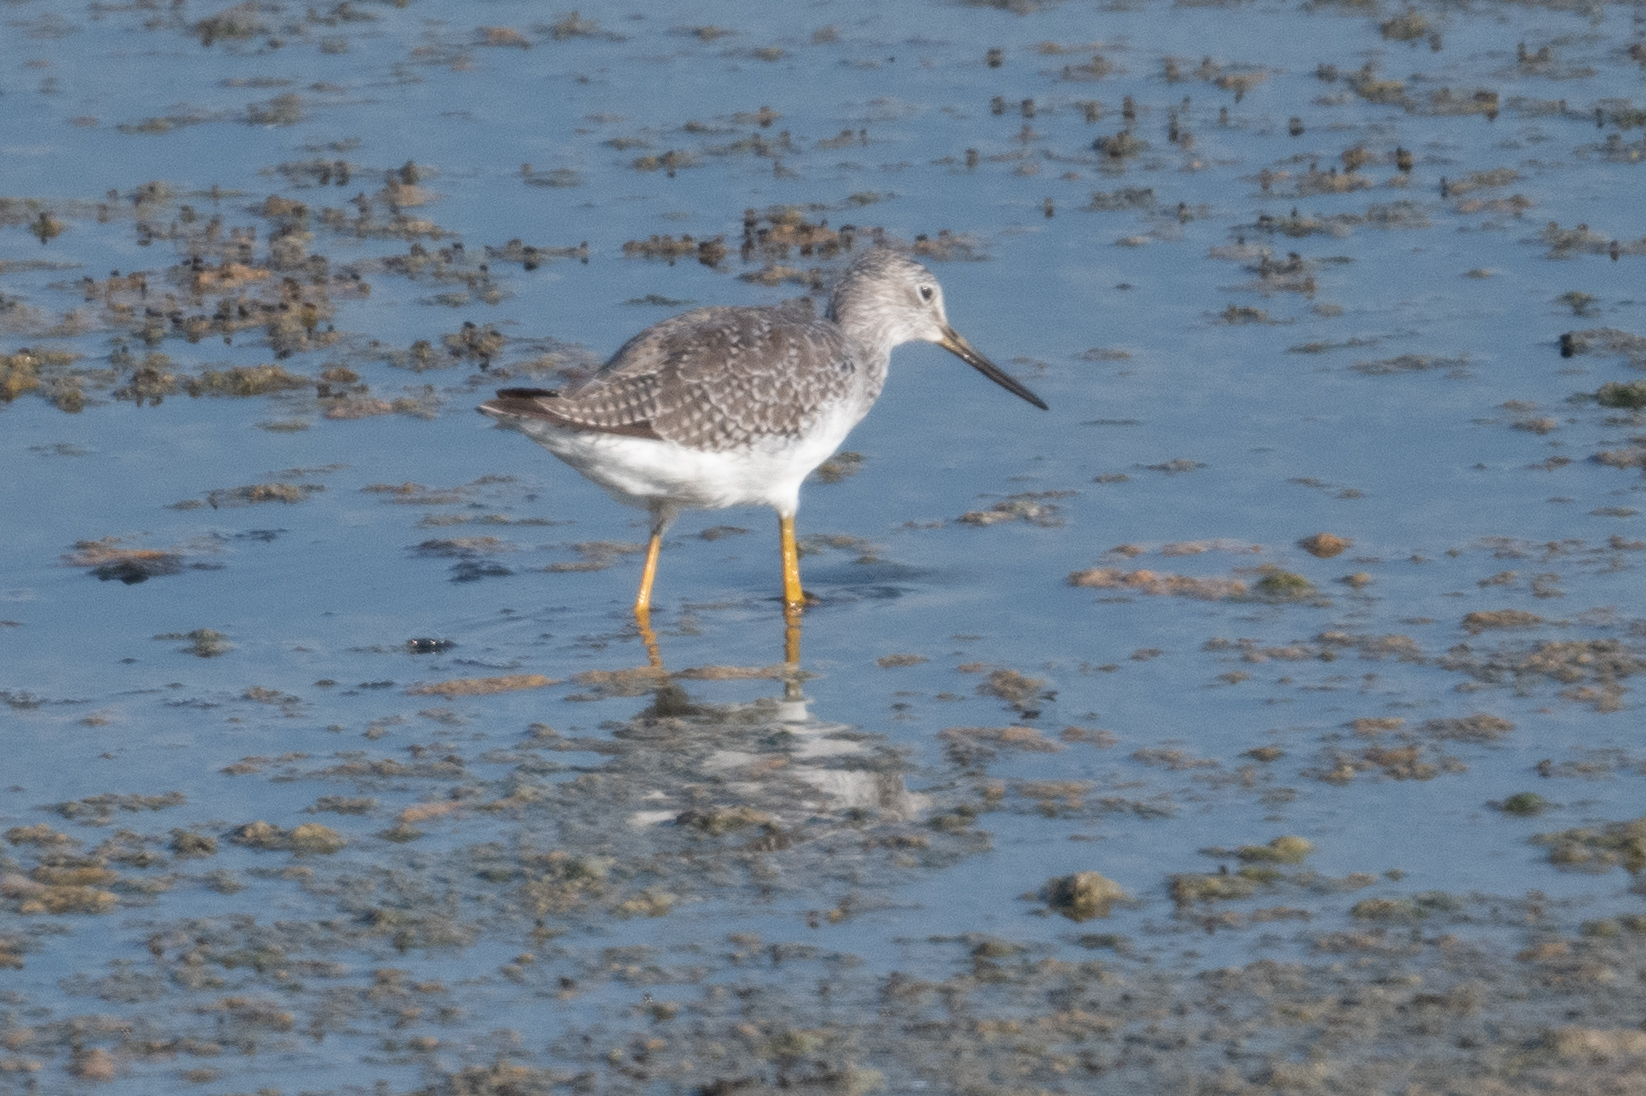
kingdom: Animalia
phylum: Chordata
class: Aves
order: Charadriiformes
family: Scolopacidae
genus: Tringa
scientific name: Tringa melanoleuca
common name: Greater yellowlegs
